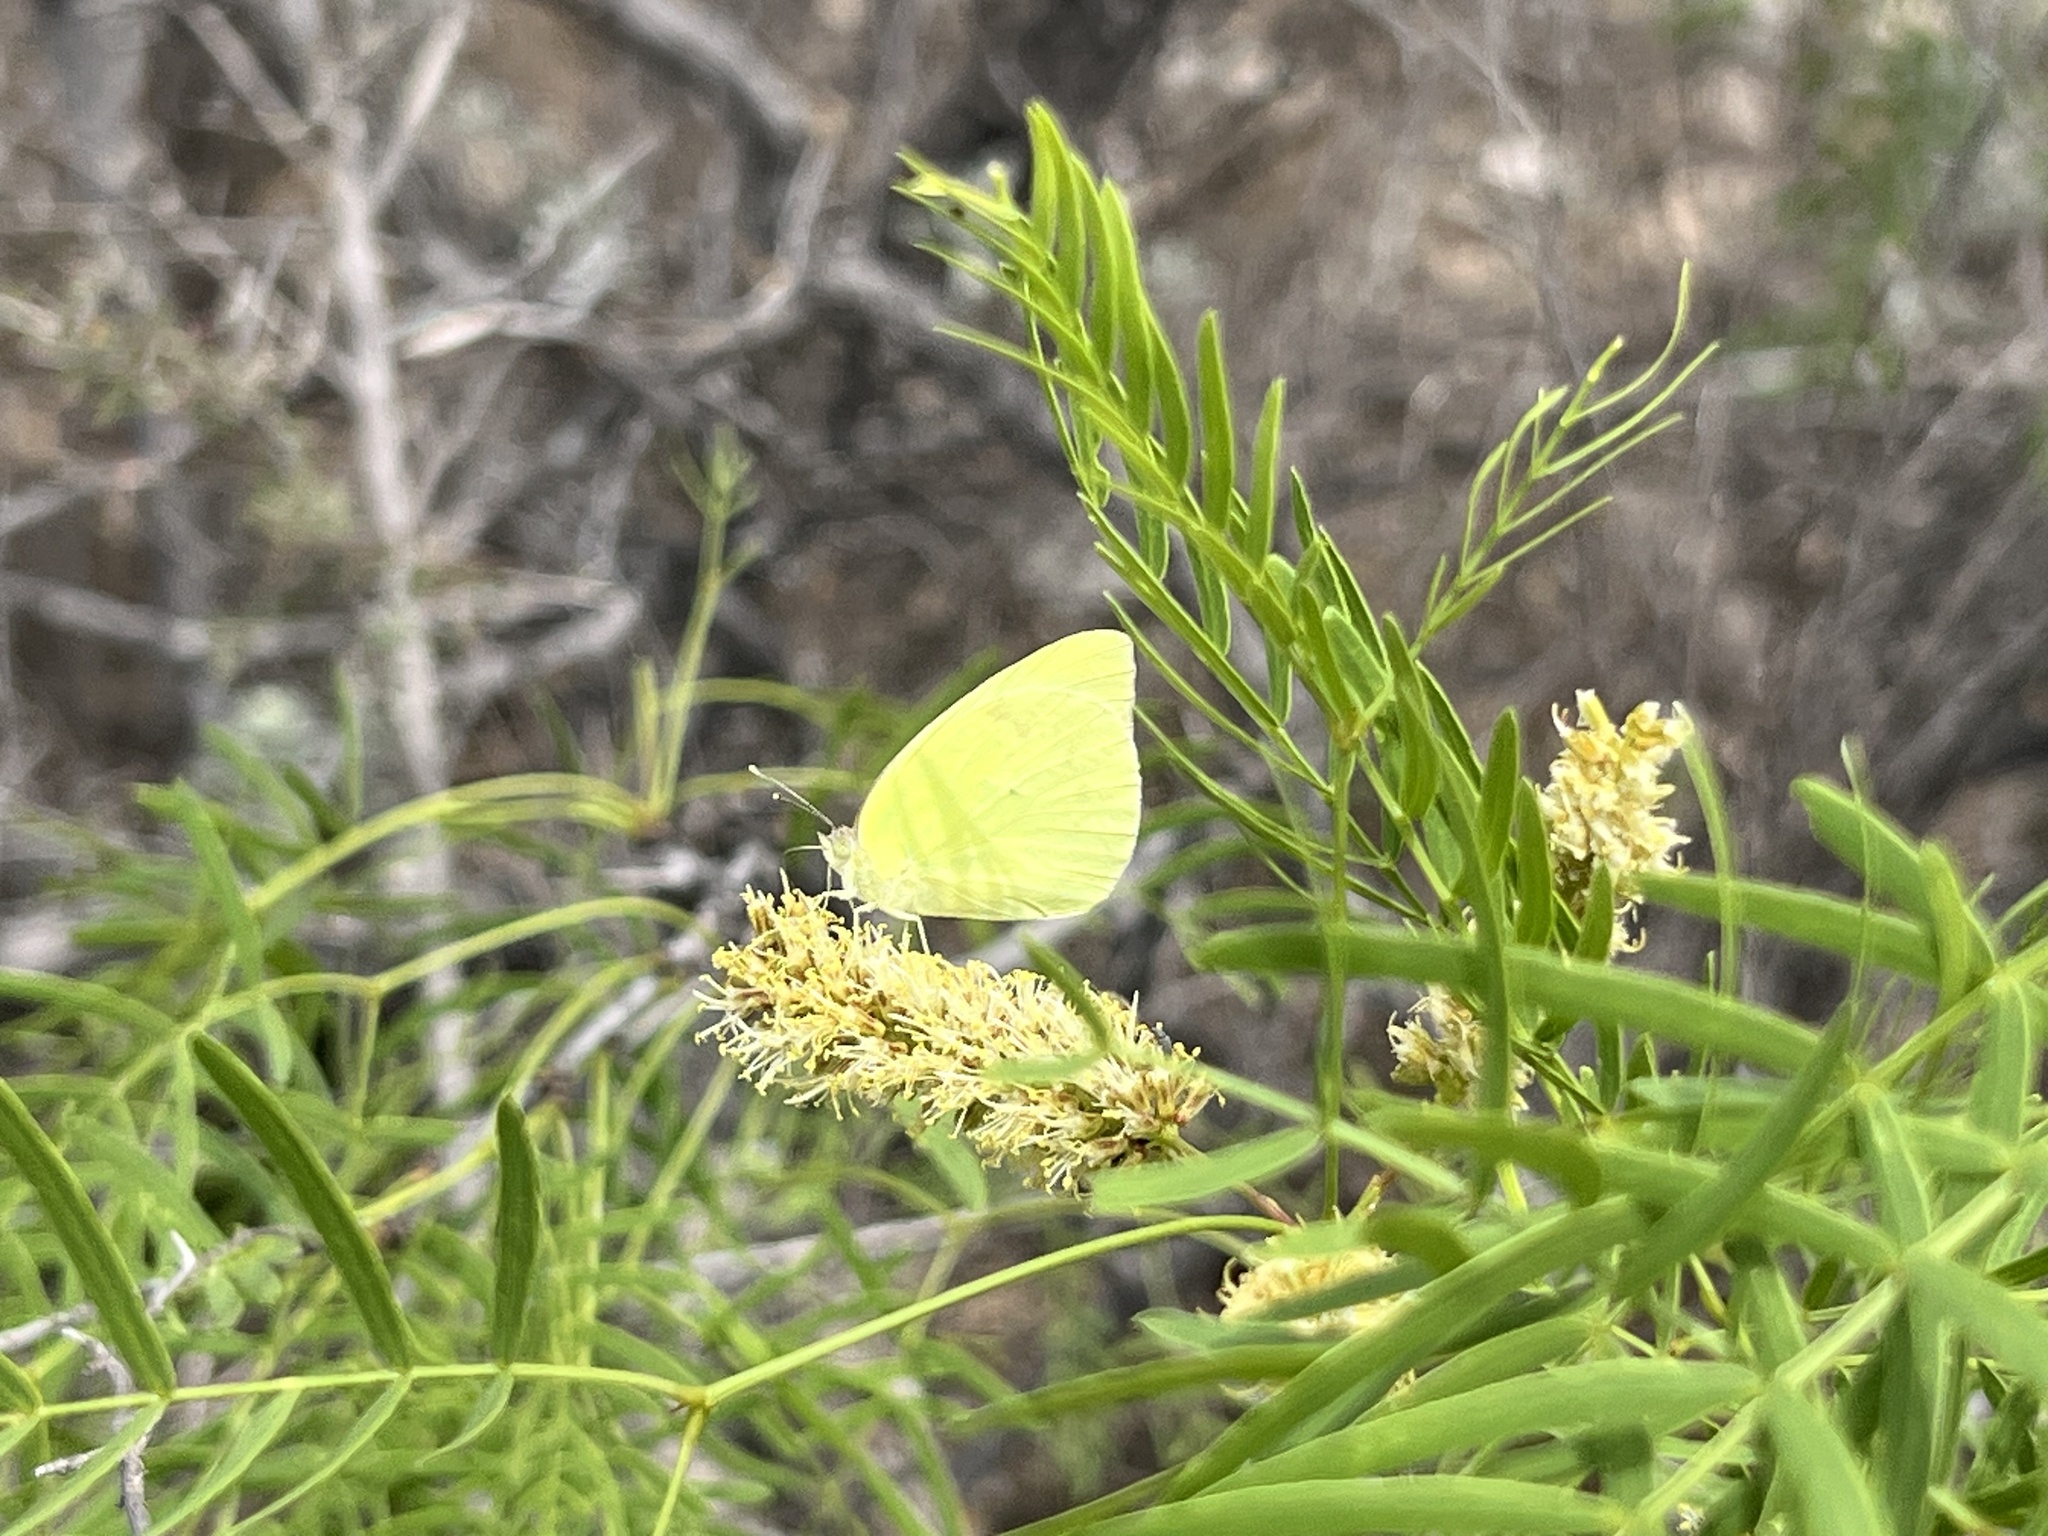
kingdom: Animalia
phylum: Arthropoda
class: Insecta
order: Lepidoptera
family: Pieridae
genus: Kricogonia
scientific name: Kricogonia lyside
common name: Guayacan sulphur,
